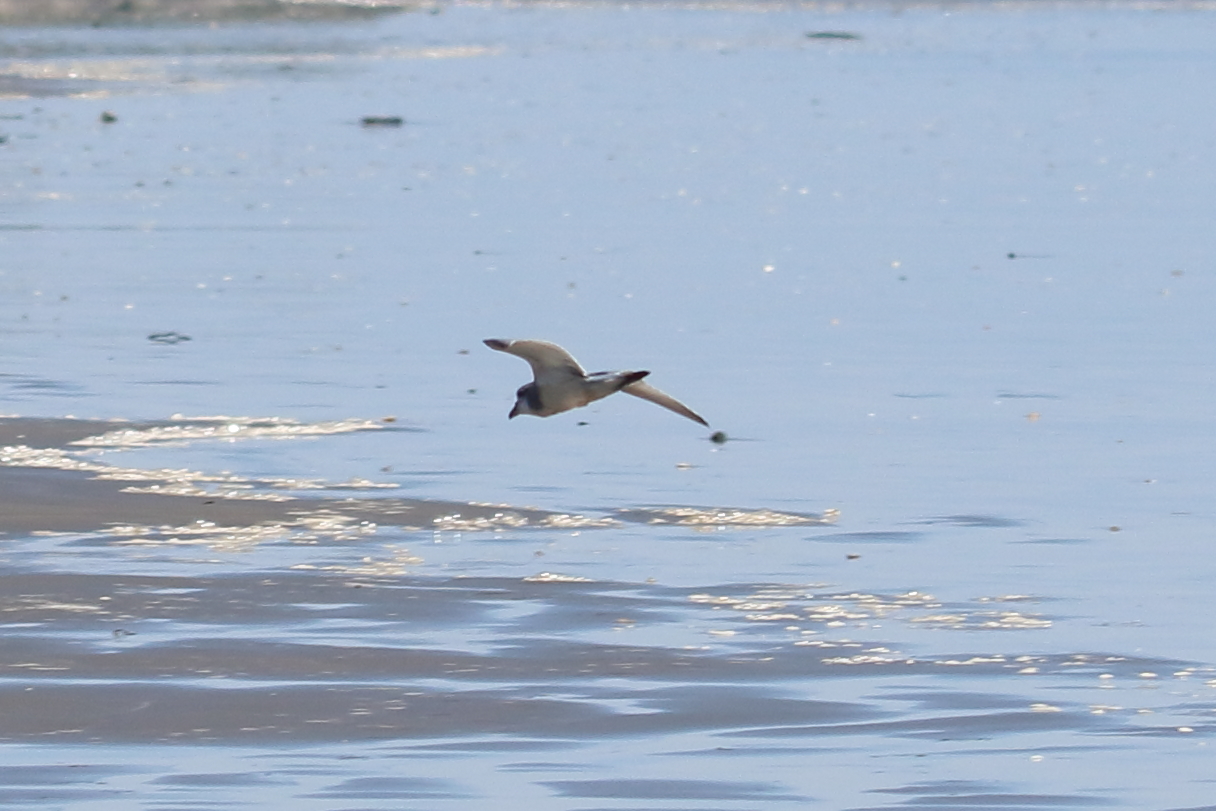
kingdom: Animalia
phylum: Chordata
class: Aves
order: Procellariiformes
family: Procellariidae
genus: Pachyptila
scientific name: Pachyptila vittata
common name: Broad-billed prion
